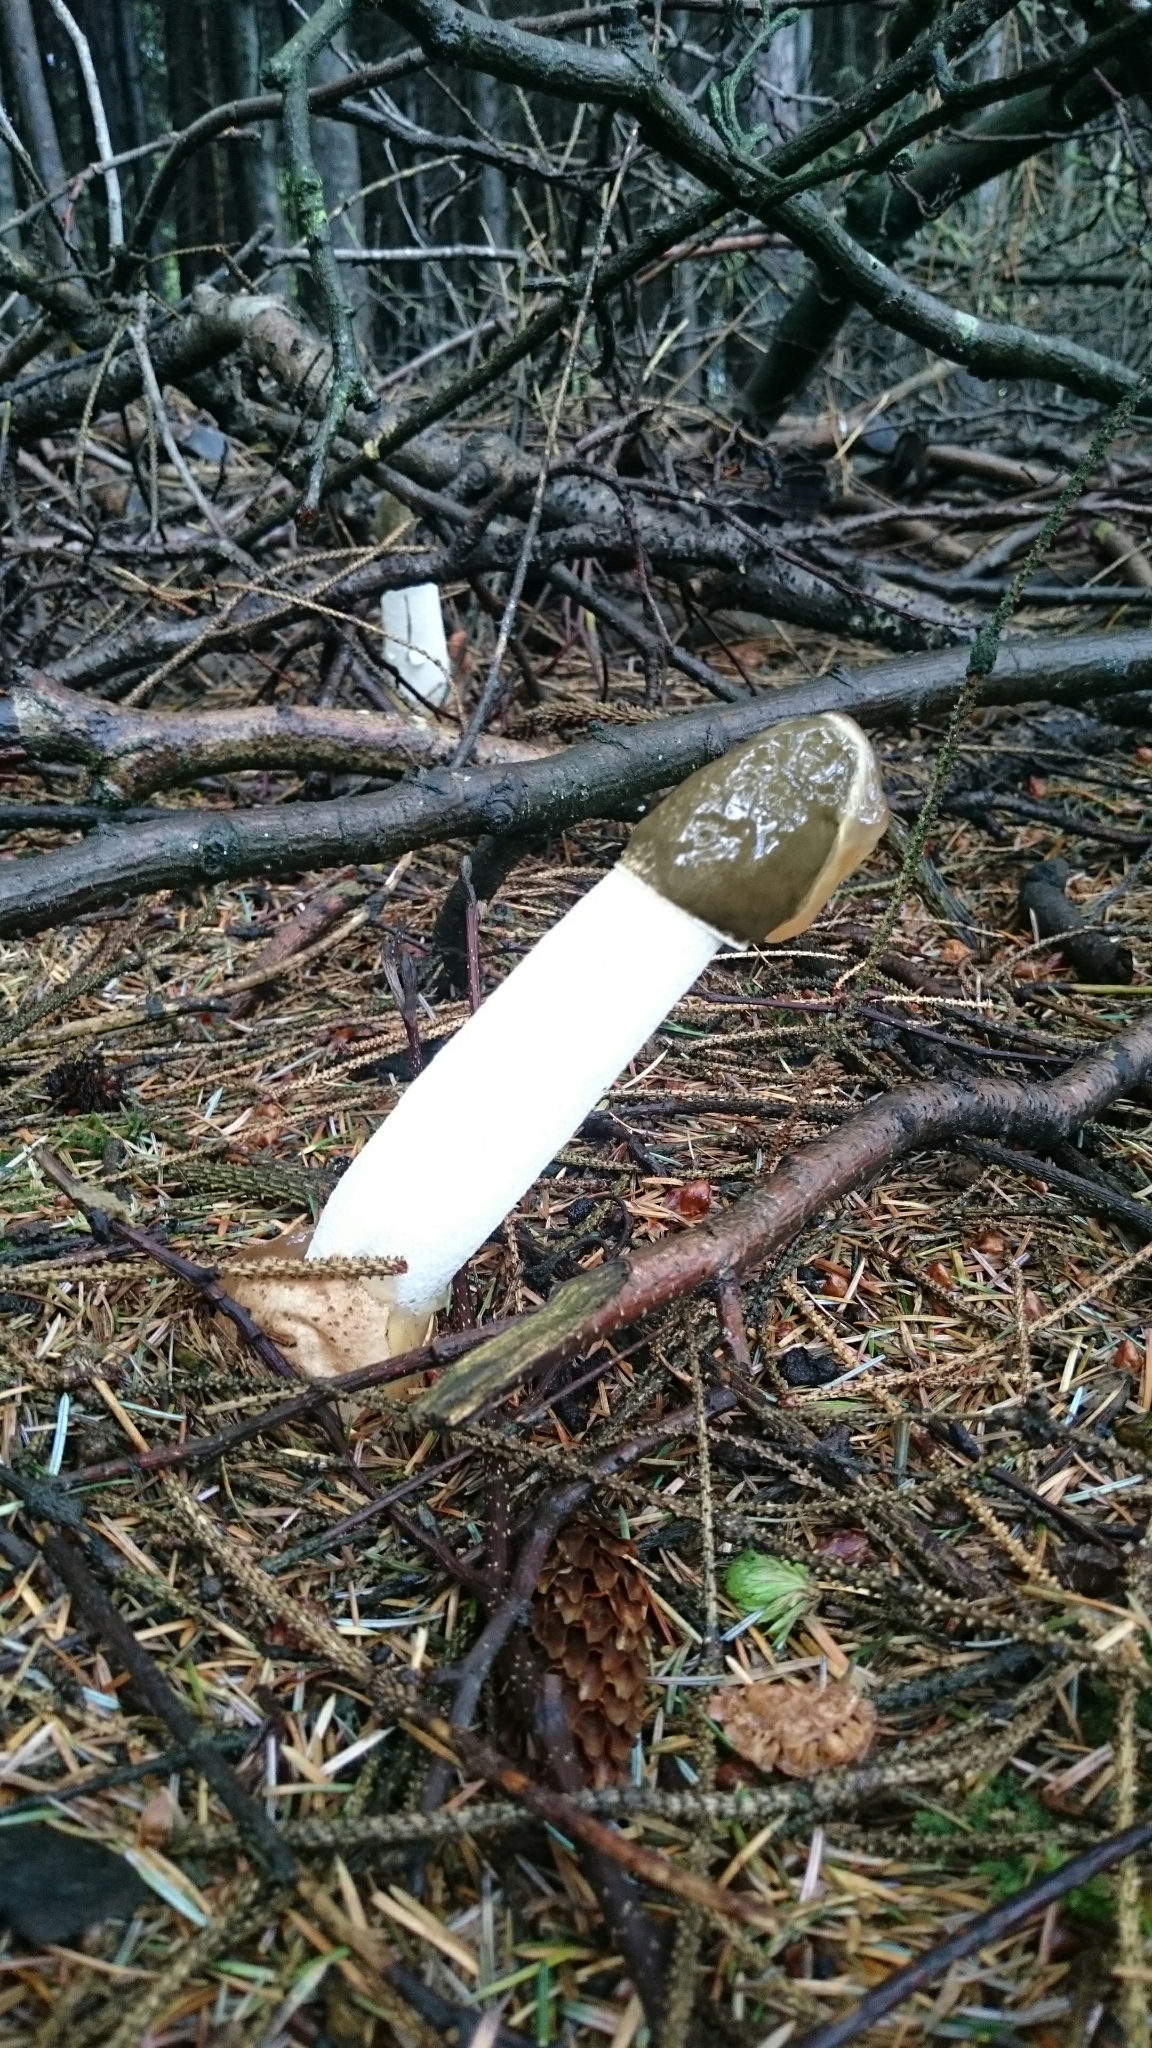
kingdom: Fungi
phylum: Basidiomycota
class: Agaricomycetes
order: Phallales
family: Phallaceae
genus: Phallus
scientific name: Phallus impudicus
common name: Common stinkhorn
